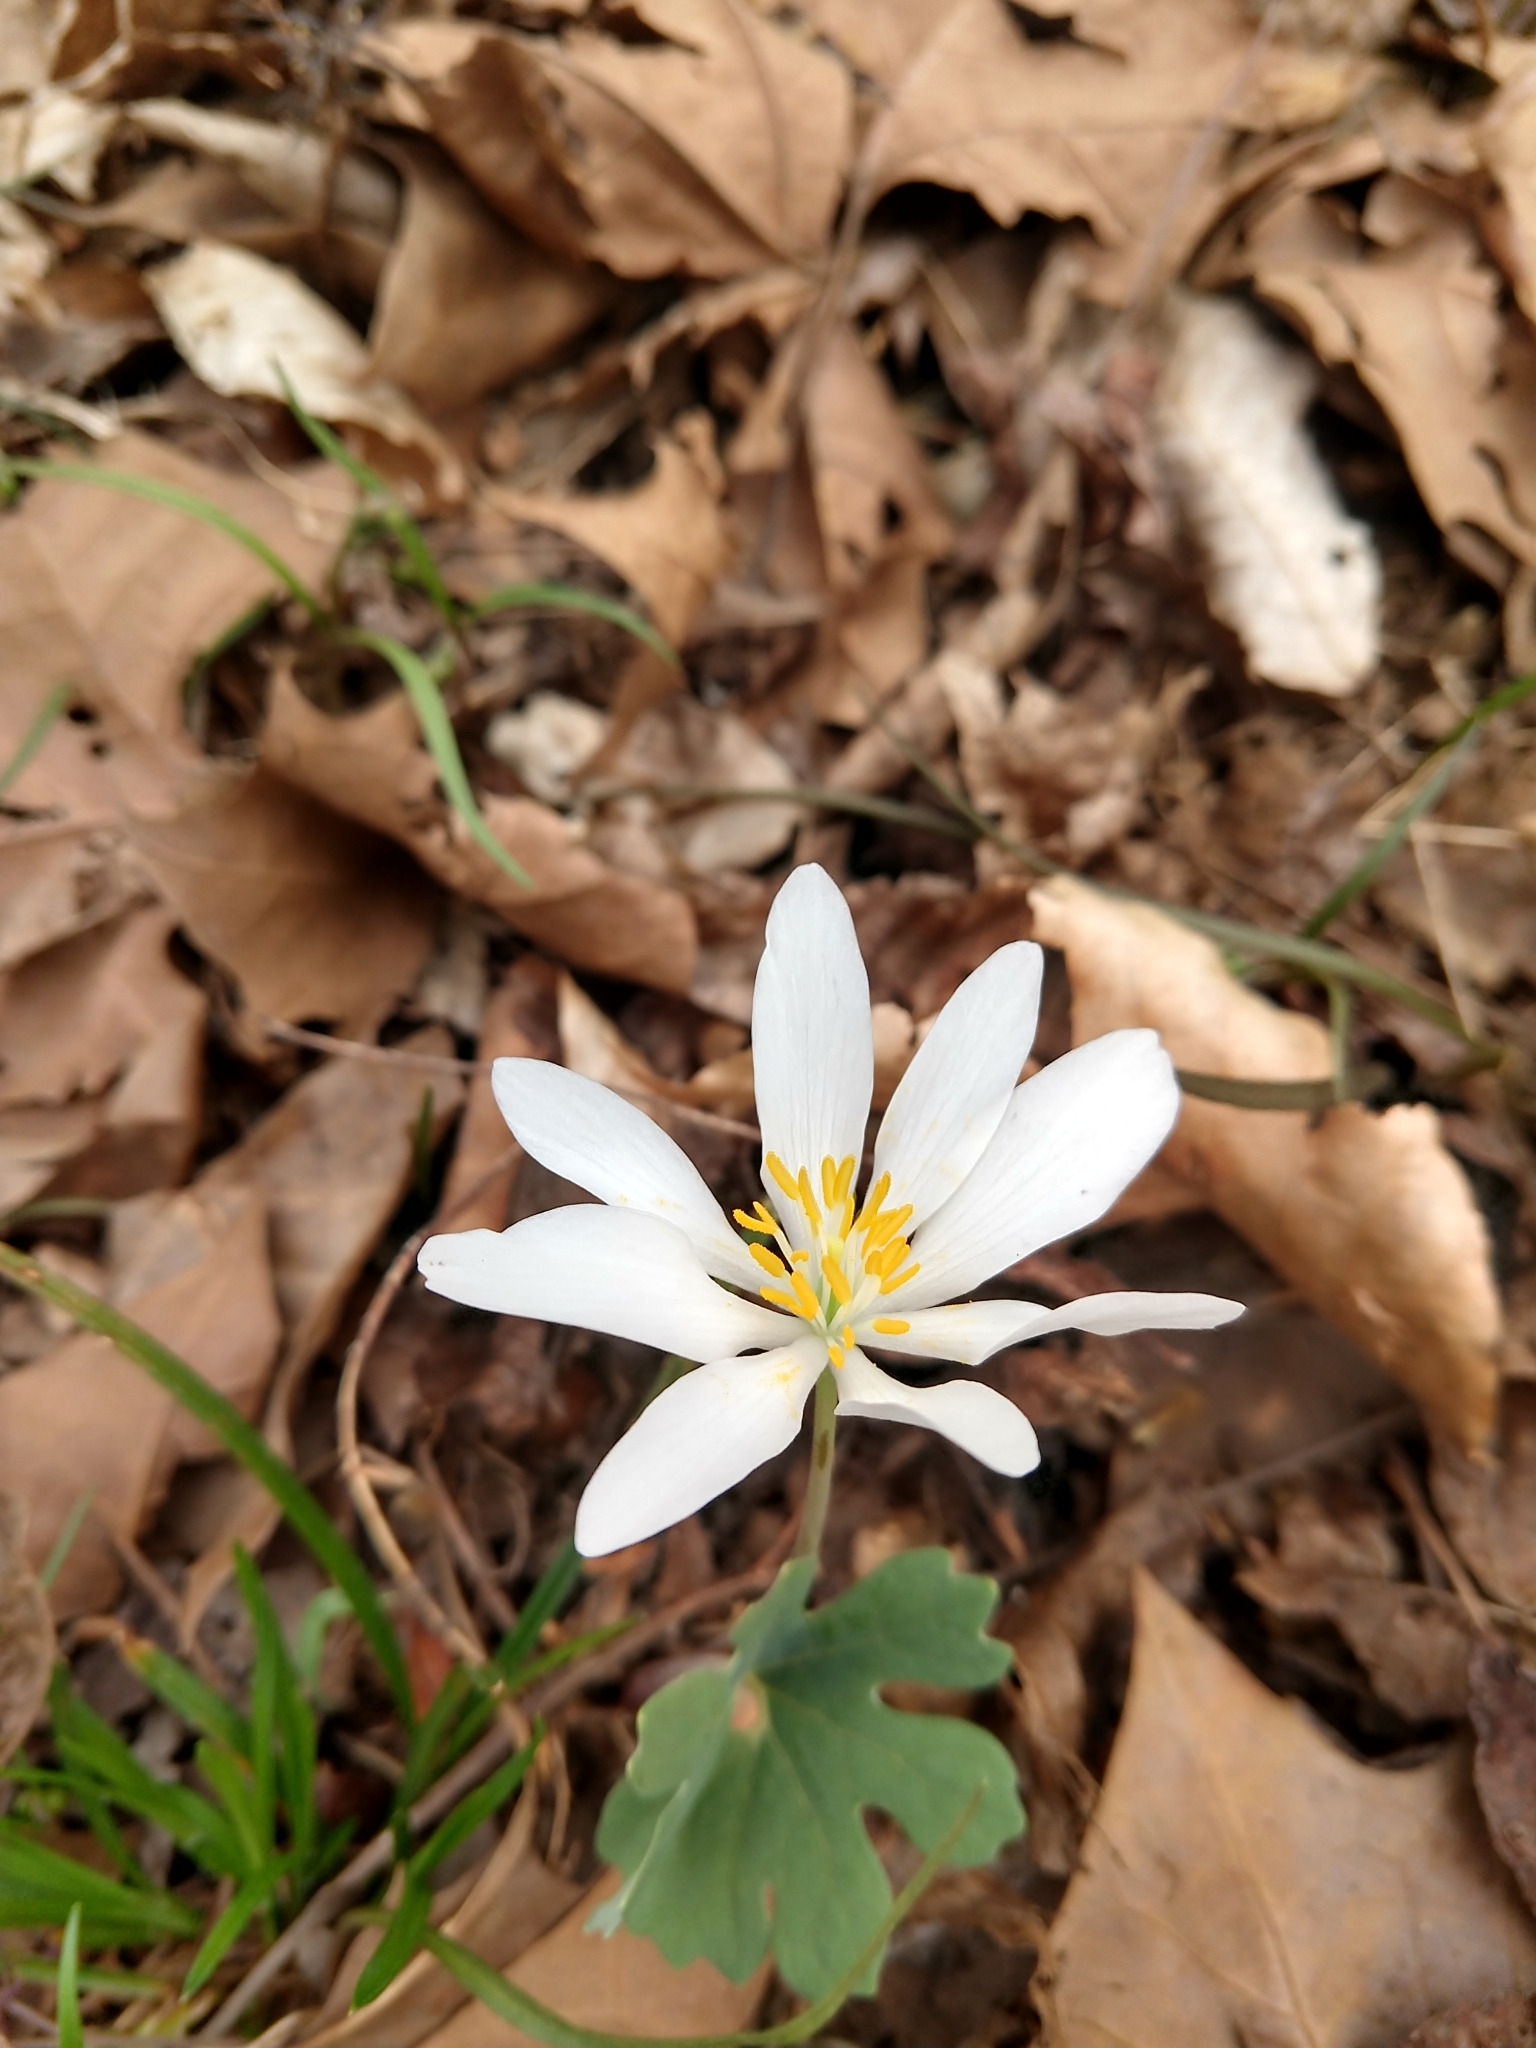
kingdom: Plantae
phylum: Tracheophyta
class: Magnoliopsida
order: Ranunculales
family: Papaveraceae
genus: Sanguinaria
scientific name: Sanguinaria canadensis
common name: Bloodroot
